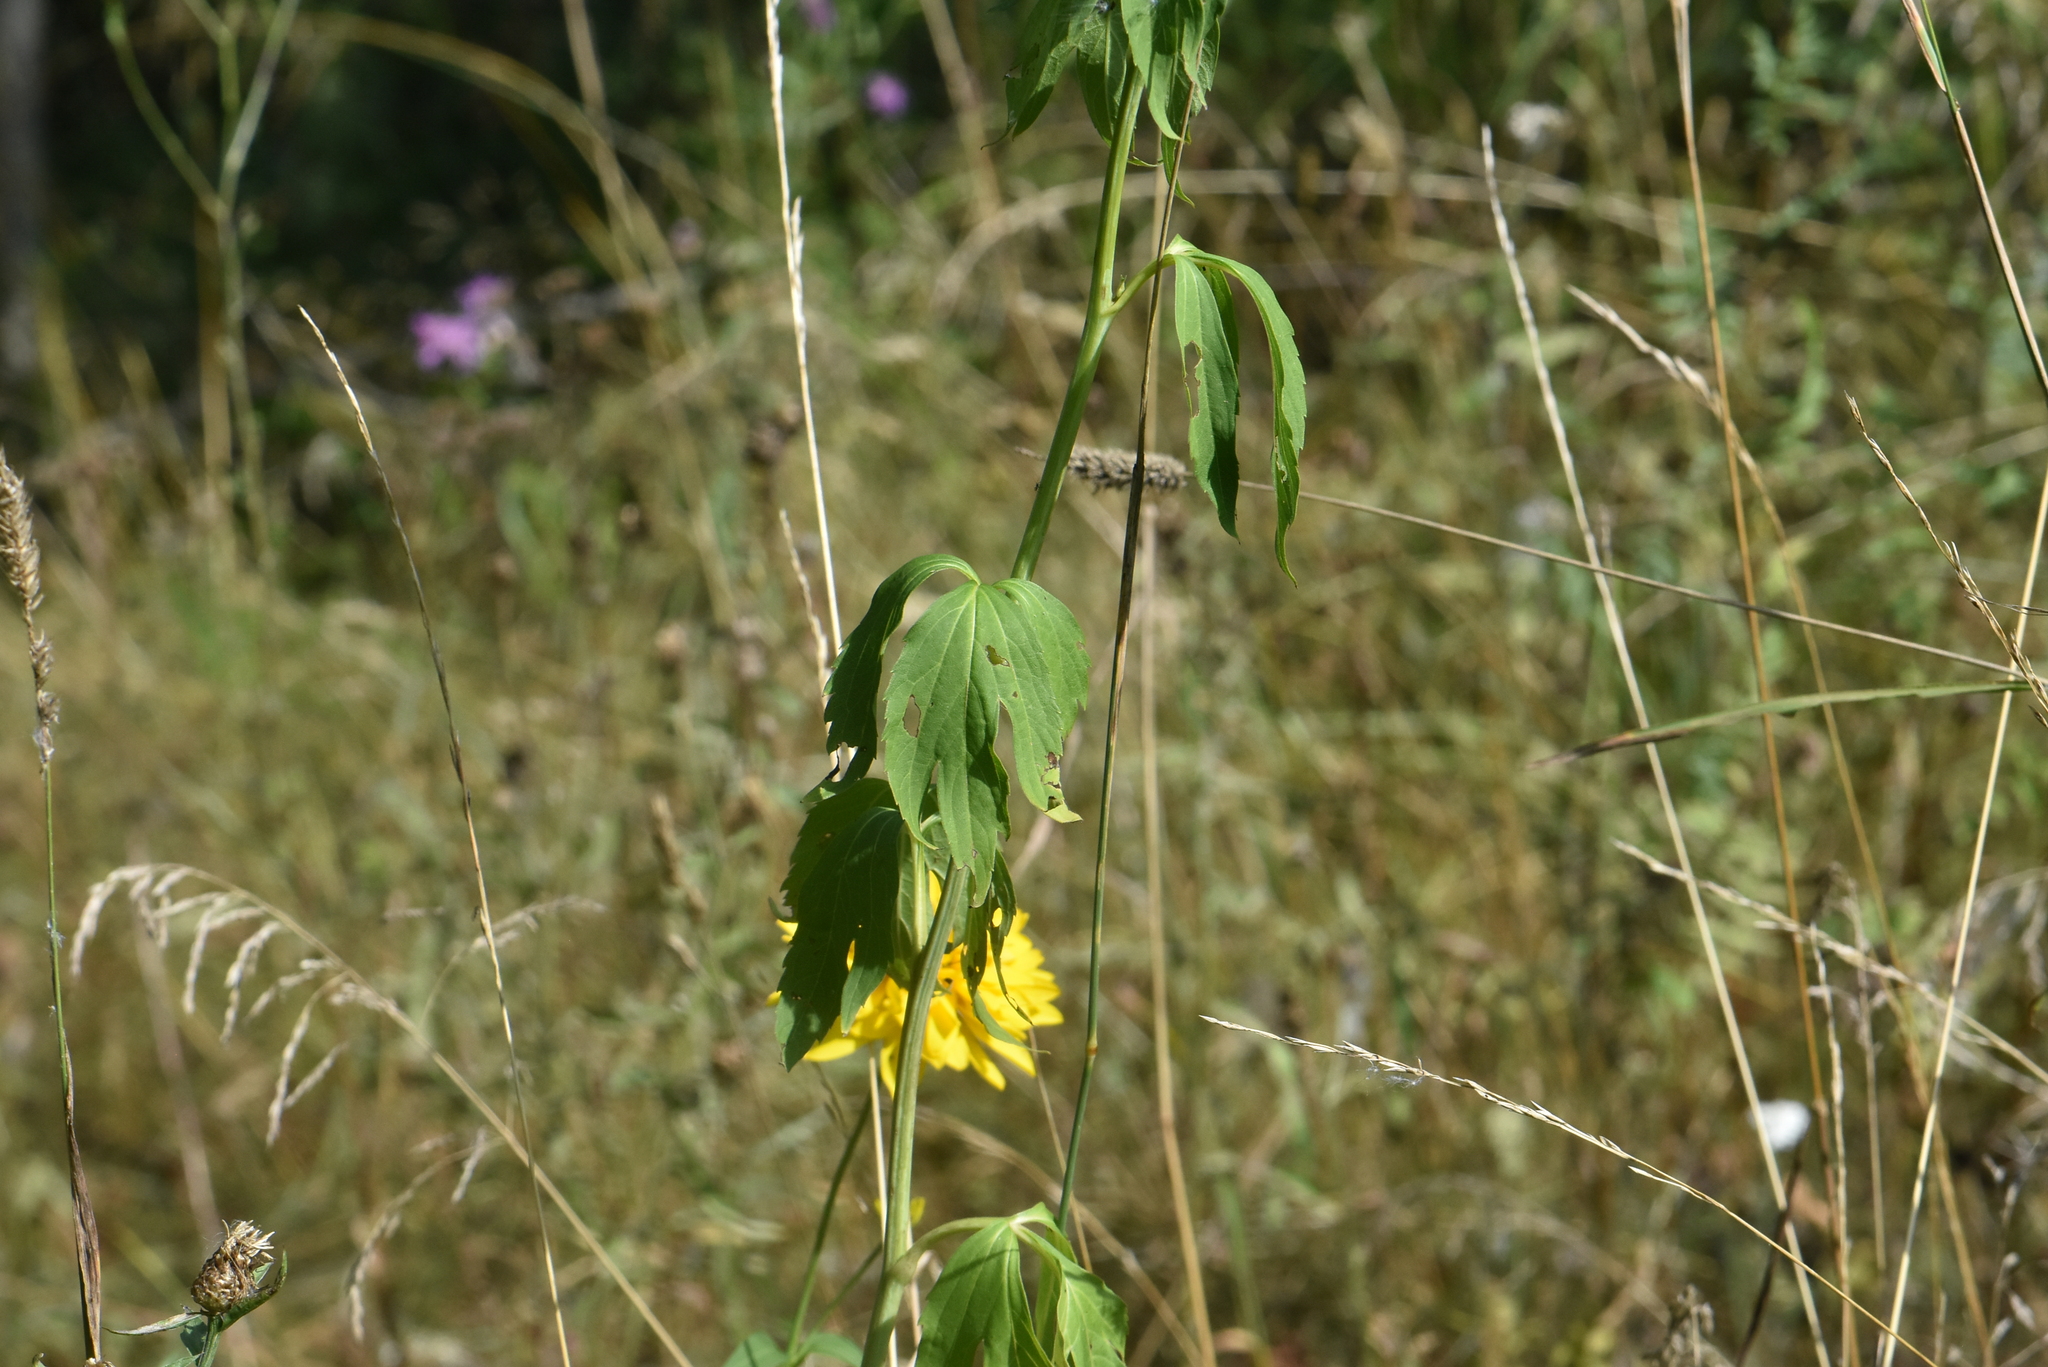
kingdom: Plantae
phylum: Tracheophyta
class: Magnoliopsida
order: Asterales
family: Asteraceae
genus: Rudbeckia
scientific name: Rudbeckia laciniata
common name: Coneflower
